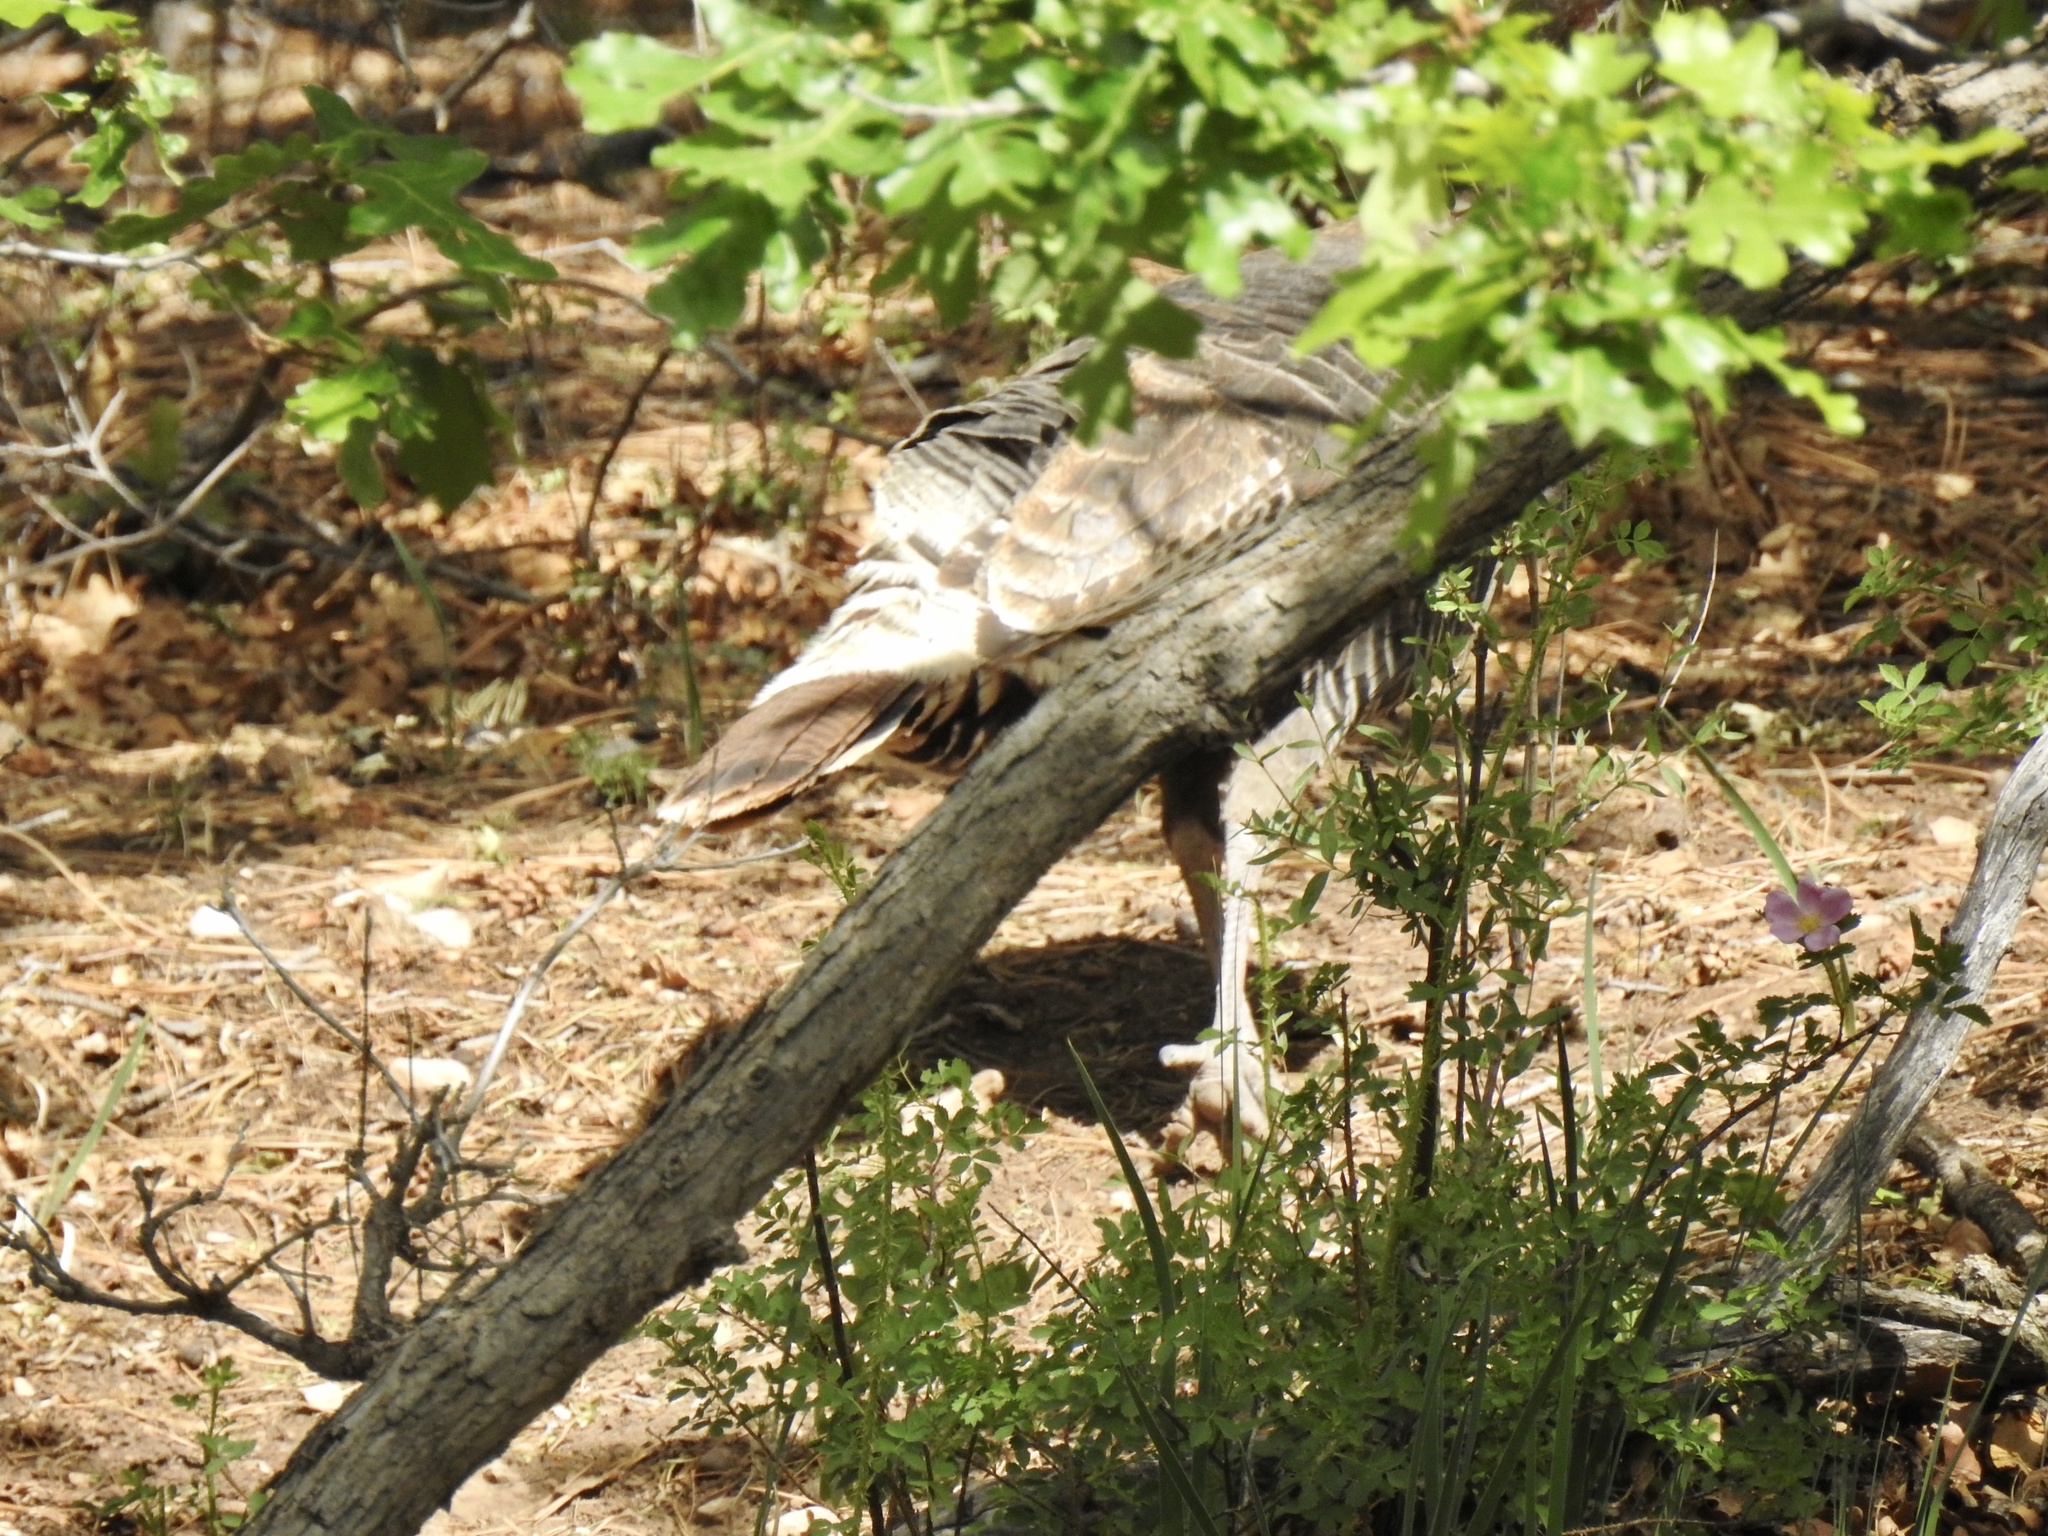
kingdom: Animalia
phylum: Chordata
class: Aves
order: Galliformes
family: Phasianidae
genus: Meleagris
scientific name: Meleagris gallopavo
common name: Wild turkey
